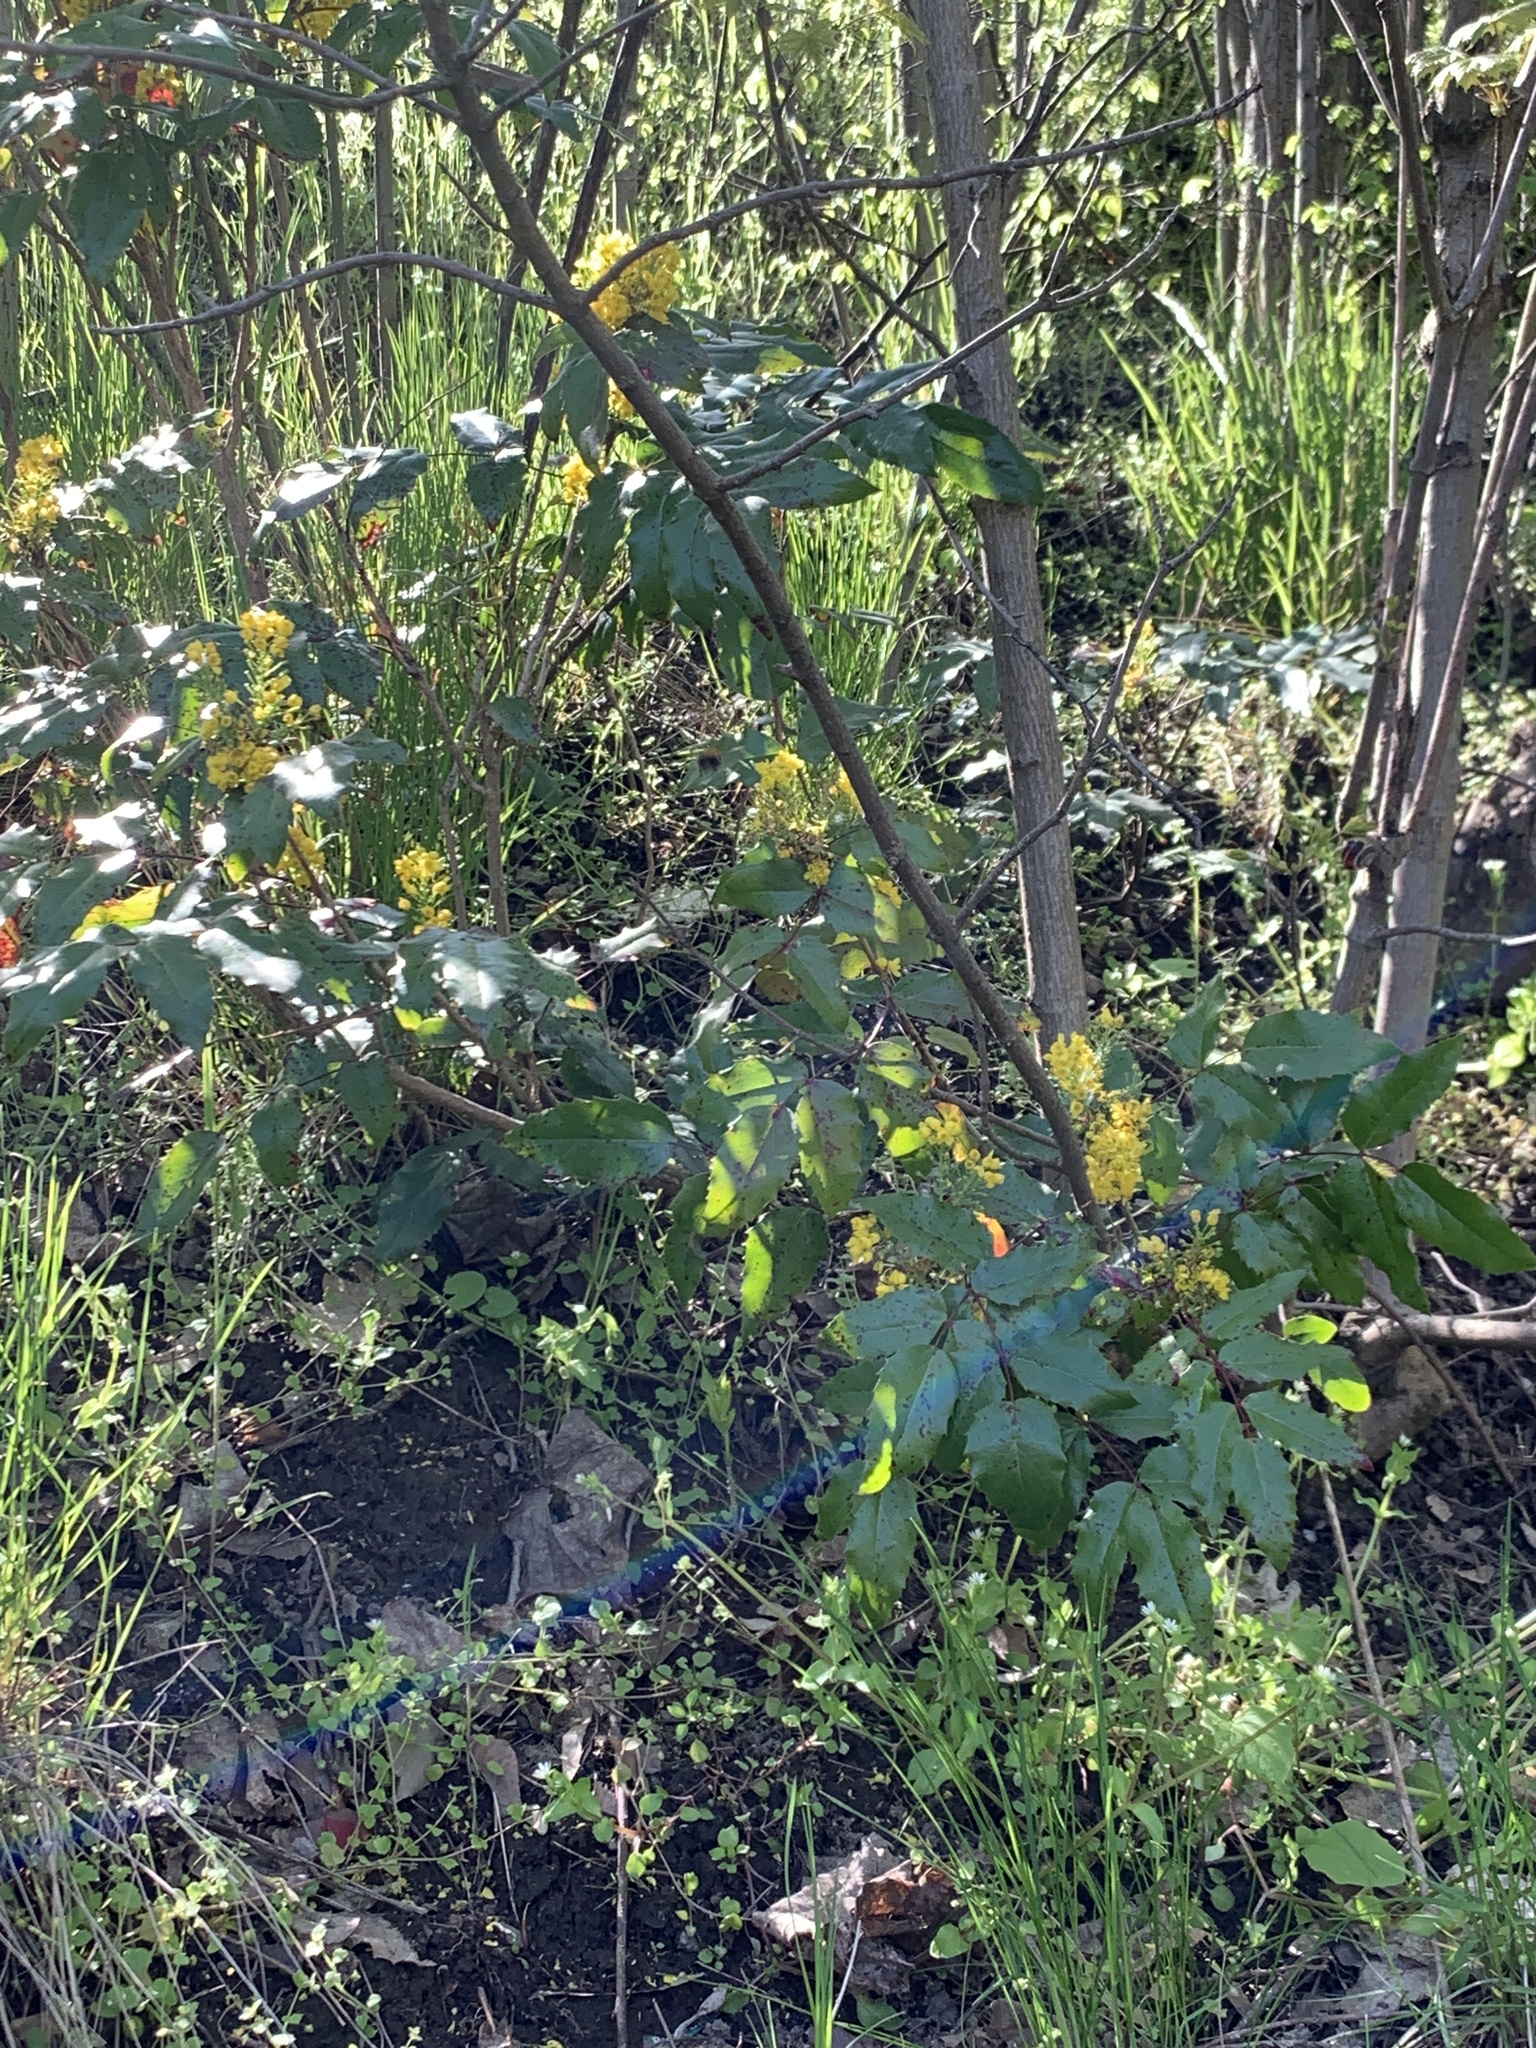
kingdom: Plantae
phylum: Tracheophyta
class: Magnoliopsida
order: Ranunculales
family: Berberidaceae
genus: Mahonia
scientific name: Mahonia aquifolium
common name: Oregon-grape
